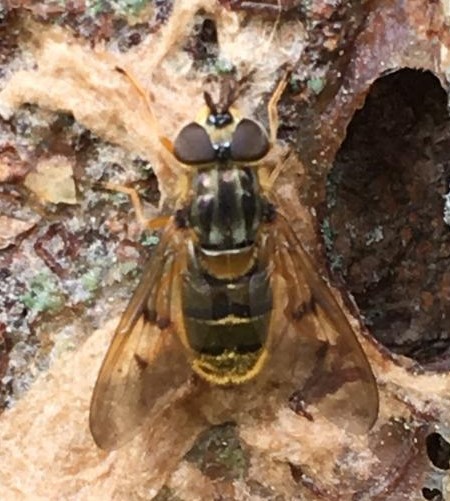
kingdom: Animalia
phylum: Arthropoda
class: Insecta
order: Diptera
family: Syrphidae
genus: Ferdinandea
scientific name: Ferdinandea buccata
